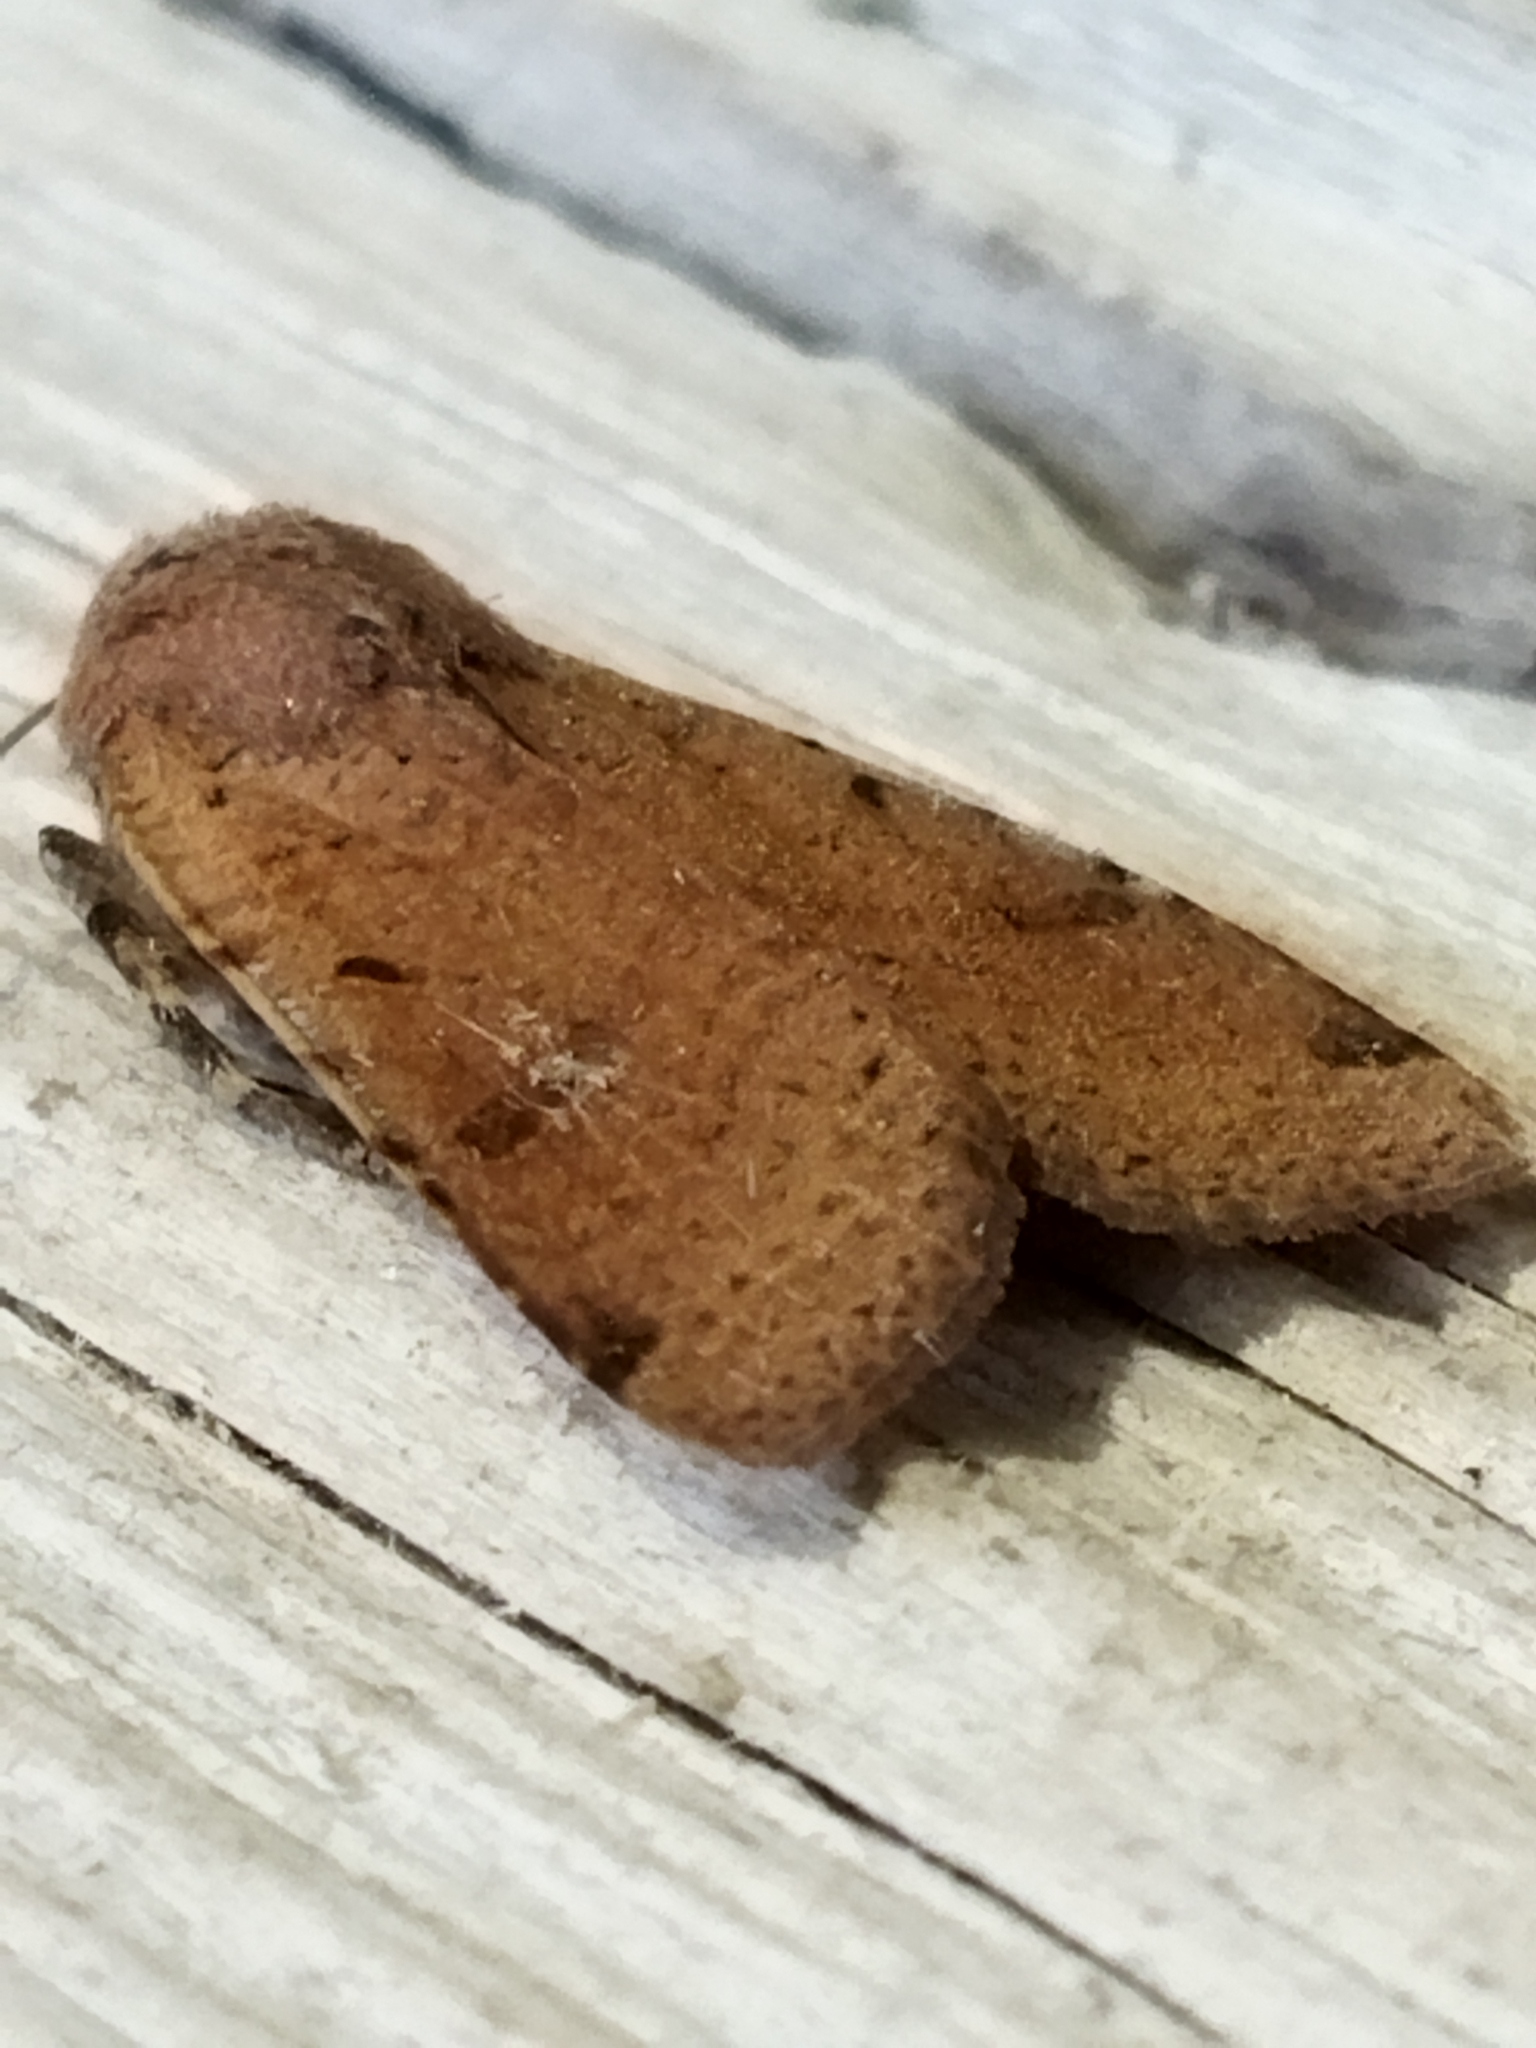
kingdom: Animalia
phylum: Arthropoda
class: Insecta
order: Lepidoptera
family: Noctuidae
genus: Agrochola
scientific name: Agrochola lychnidis
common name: Beaded chestnut
